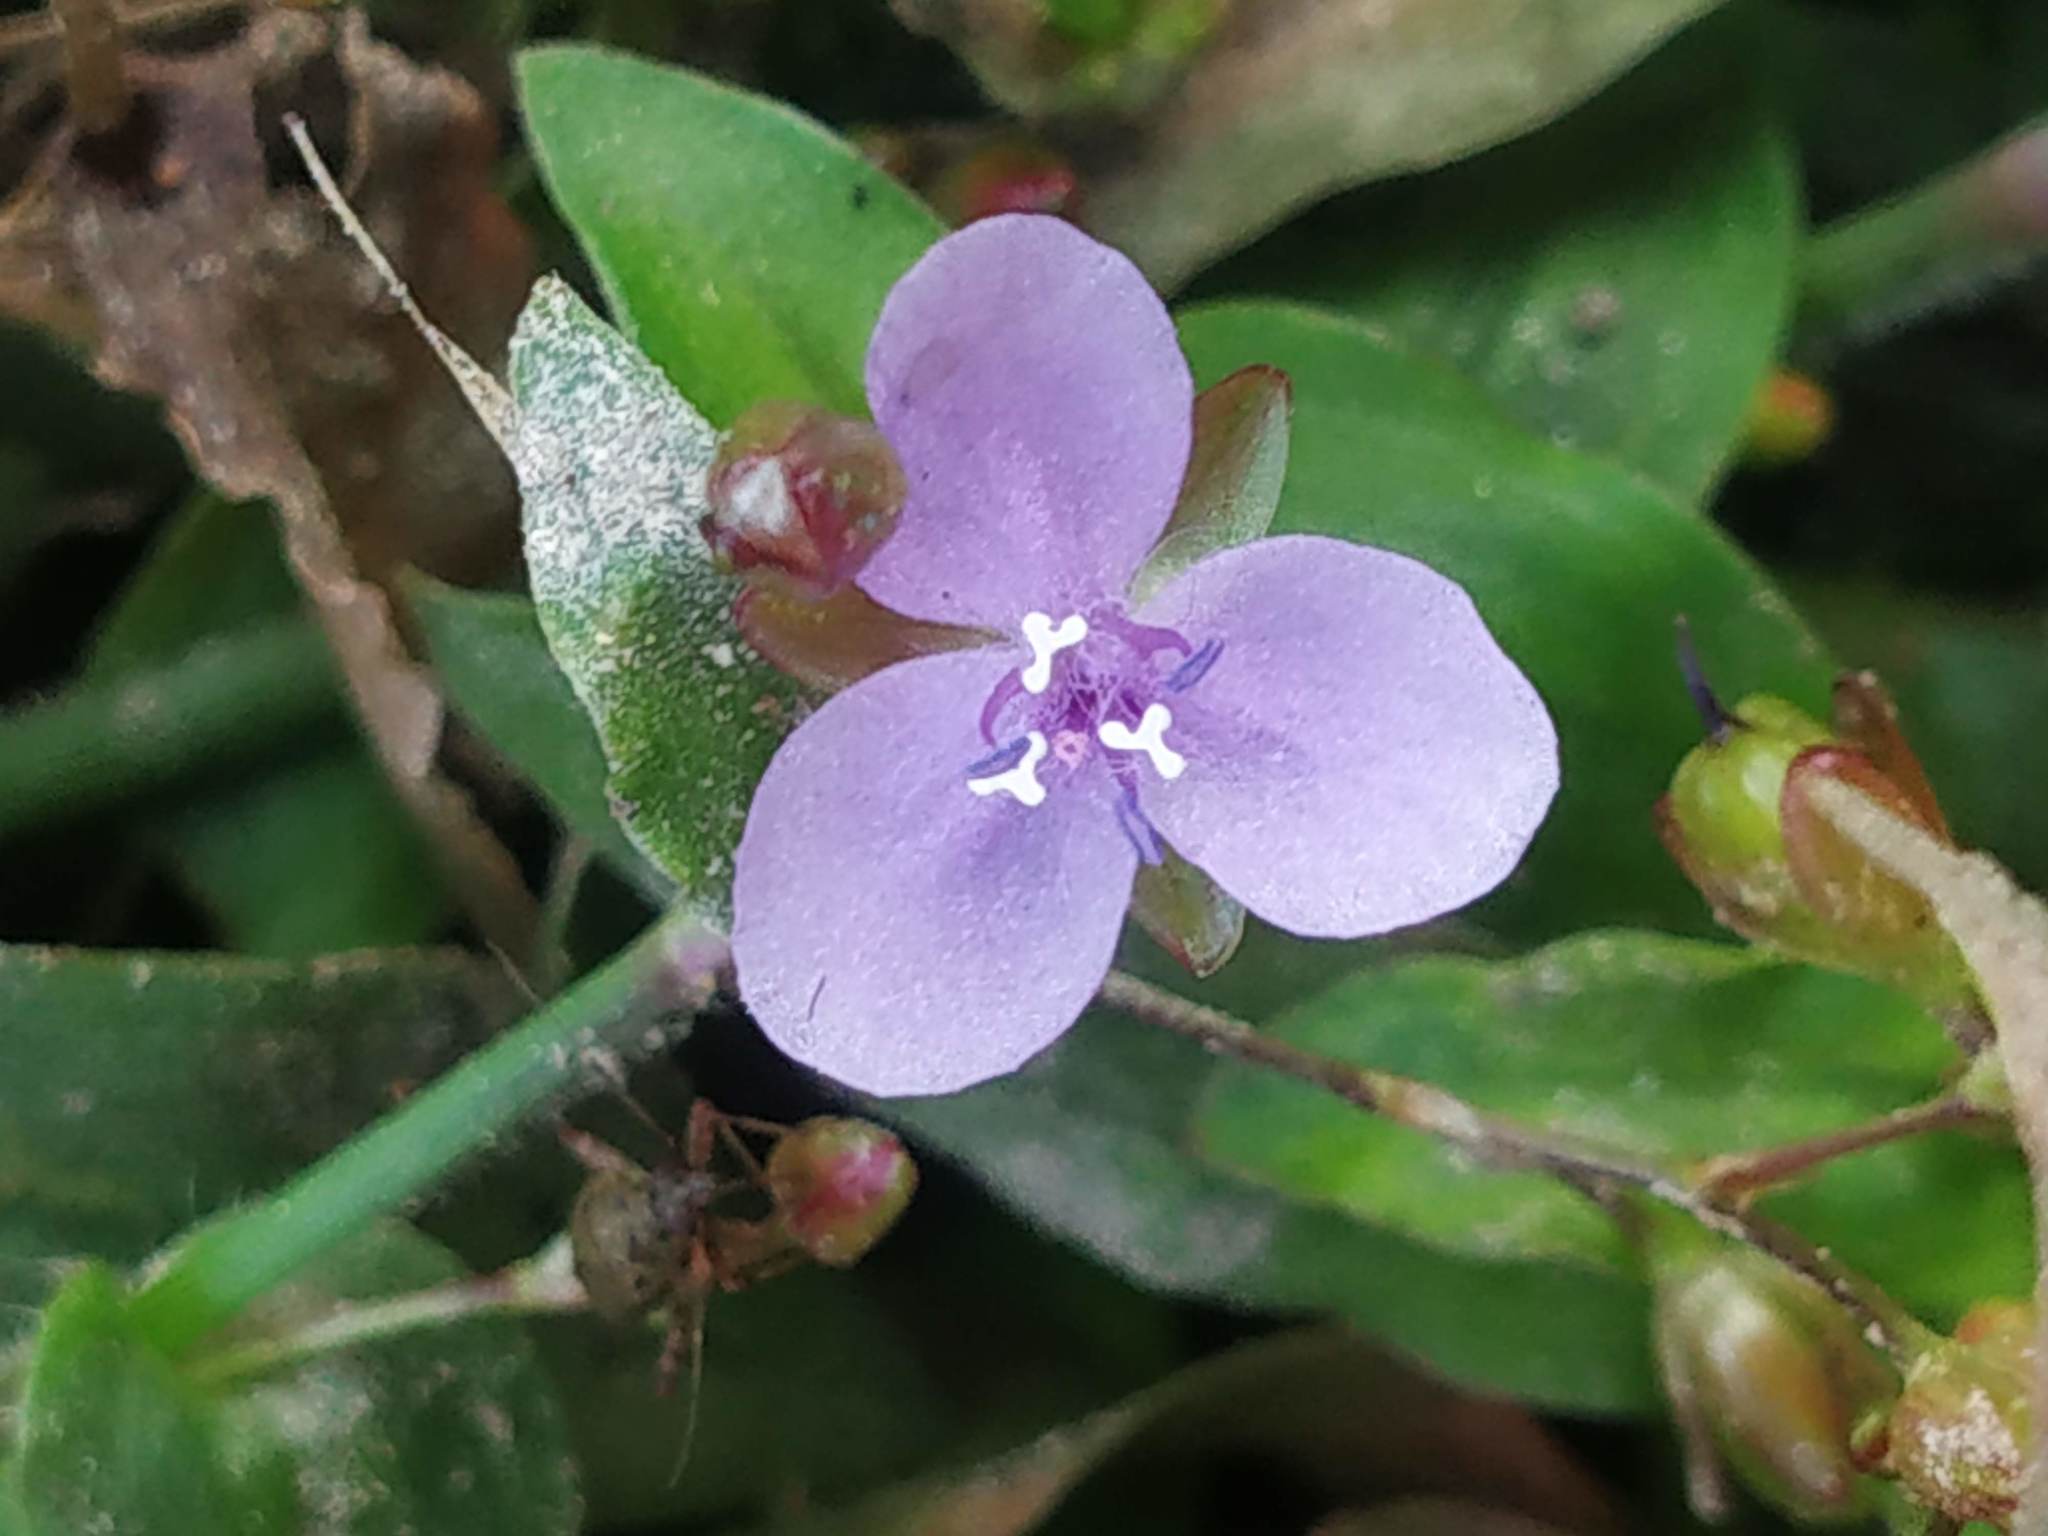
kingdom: Plantae
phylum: Tracheophyta
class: Liliopsida
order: Commelinales
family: Commelinaceae
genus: Murdannia
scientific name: Murdannia spirata
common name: Asiatic dewflower
